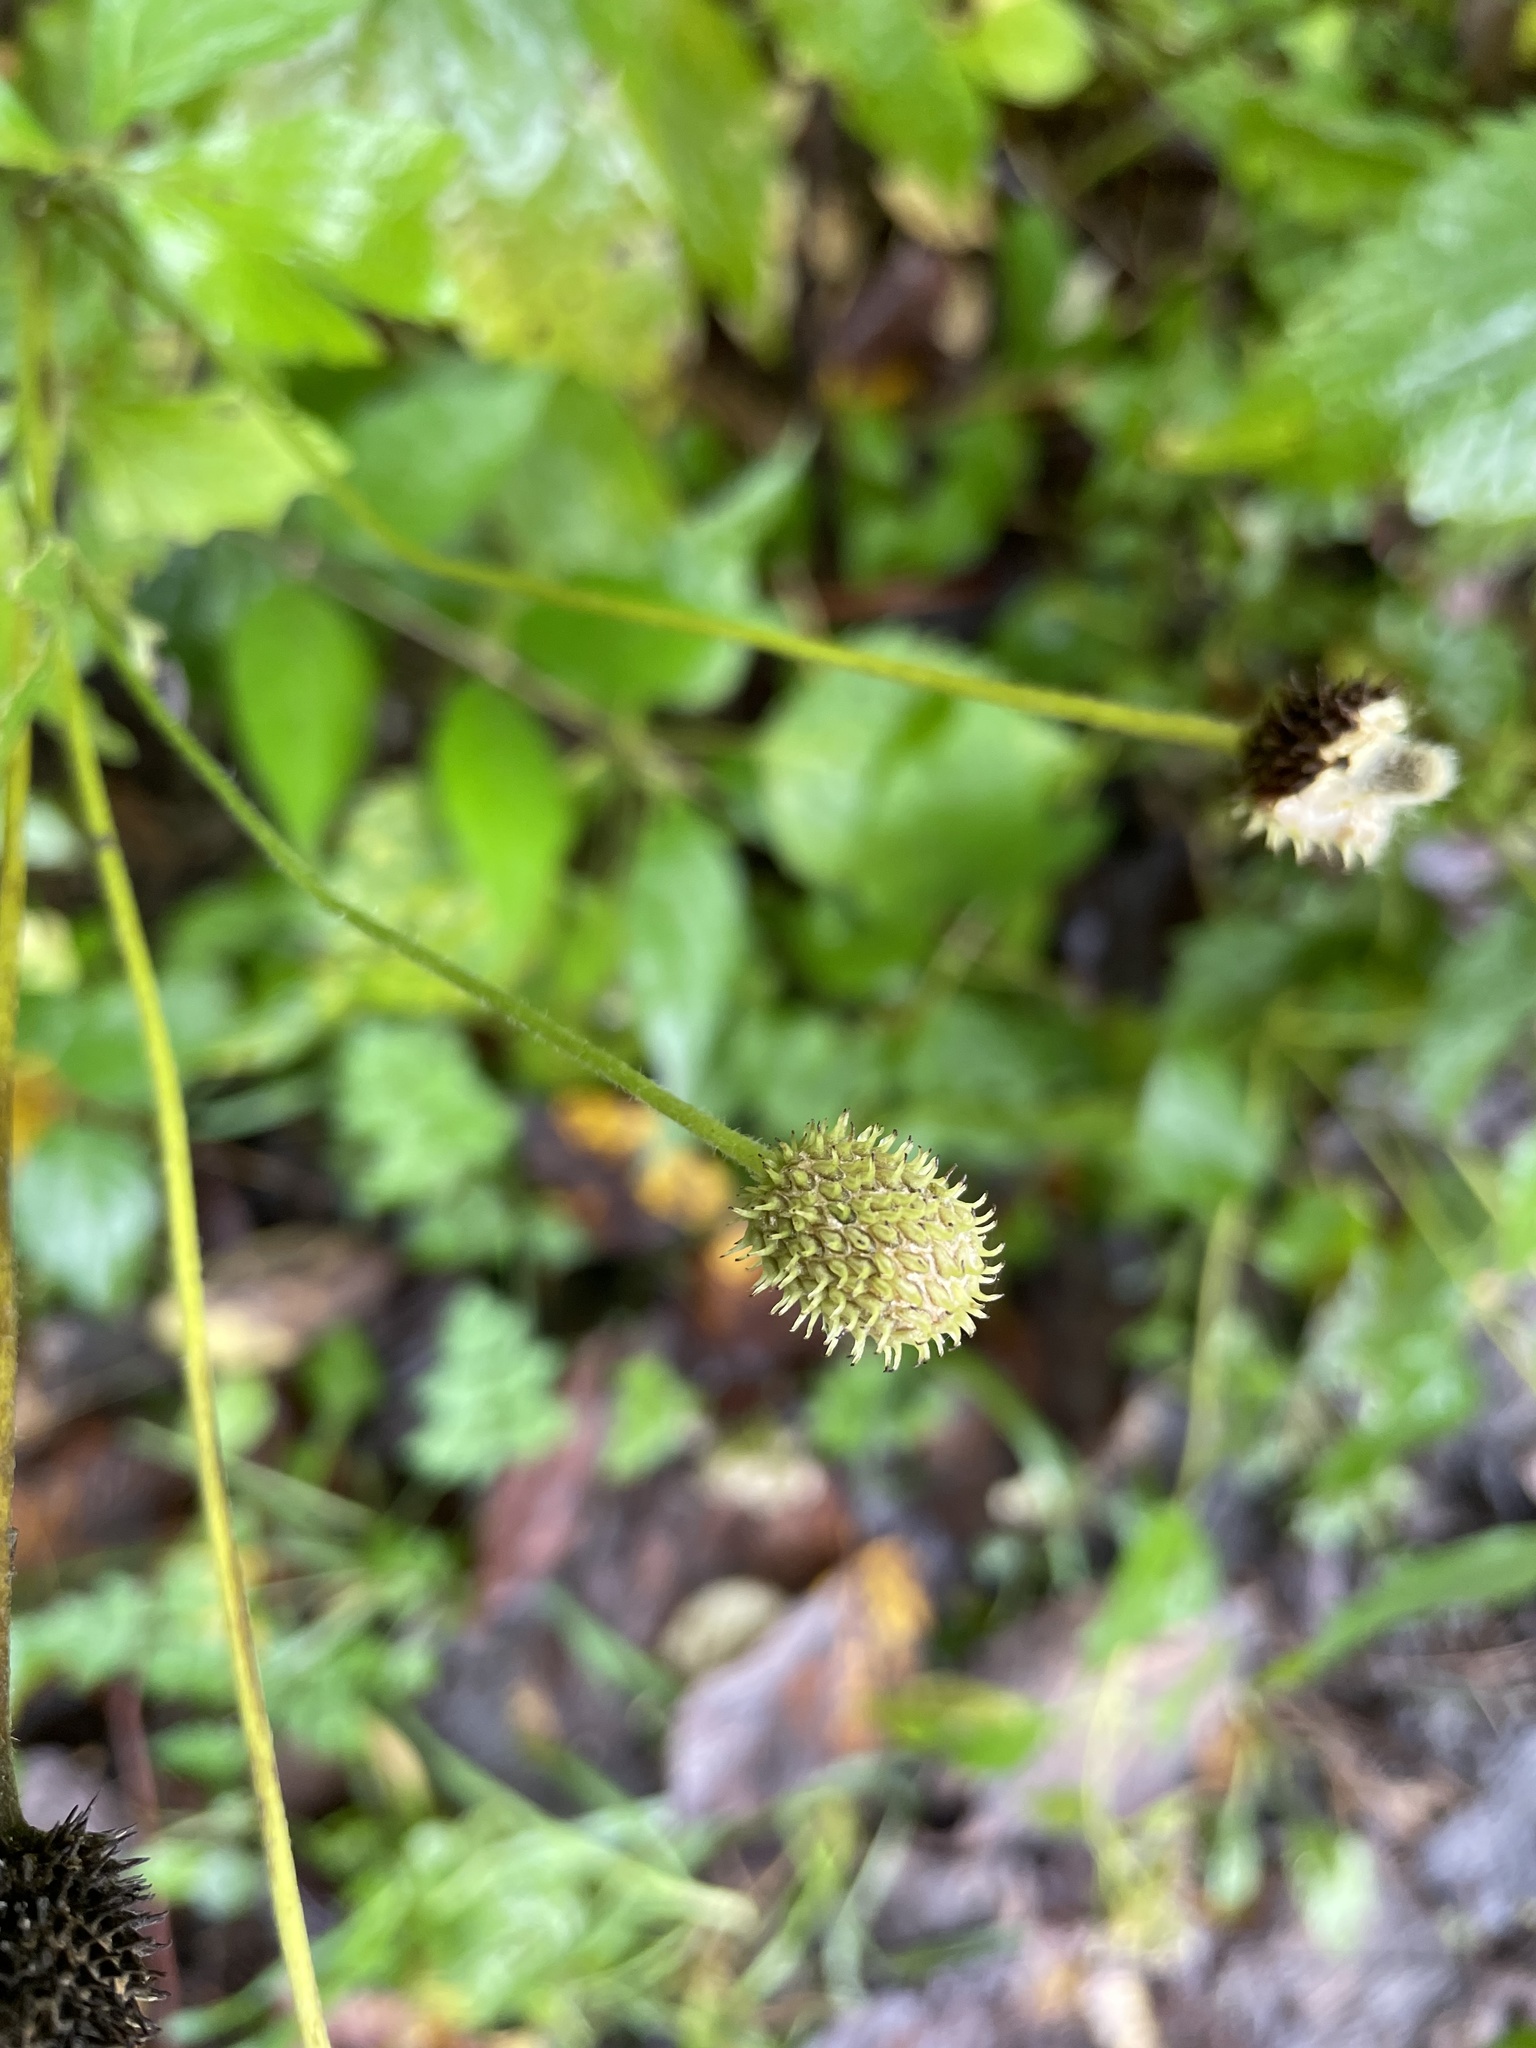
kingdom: Plantae
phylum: Tracheophyta
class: Magnoliopsida
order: Ranunculales
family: Ranunculaceae
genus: Anemone
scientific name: Anemone virginiana
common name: Tall anemone
